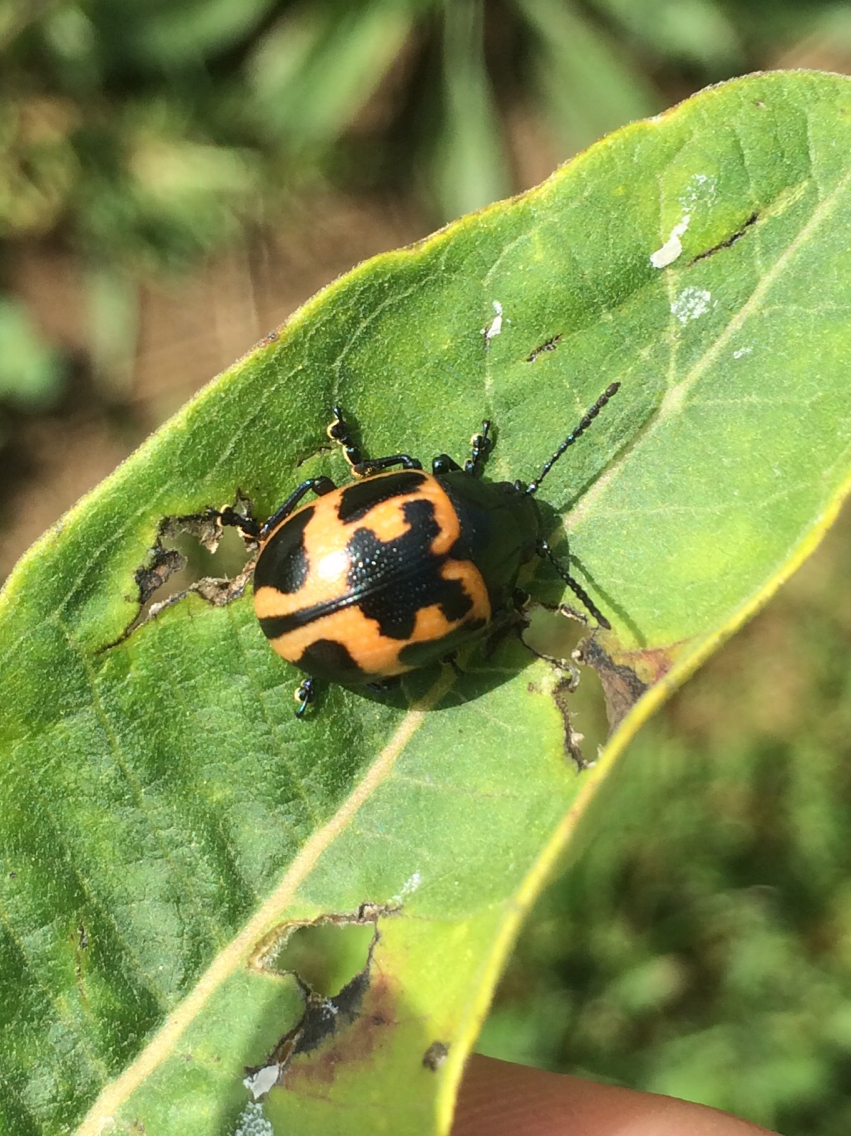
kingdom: Animalia
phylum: Arthropoda
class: Insecta
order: Coleoptera
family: Chrysomelidae
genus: Labidomera
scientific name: Labidomera clivicollis
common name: Swamp milkweed leaf beetle
